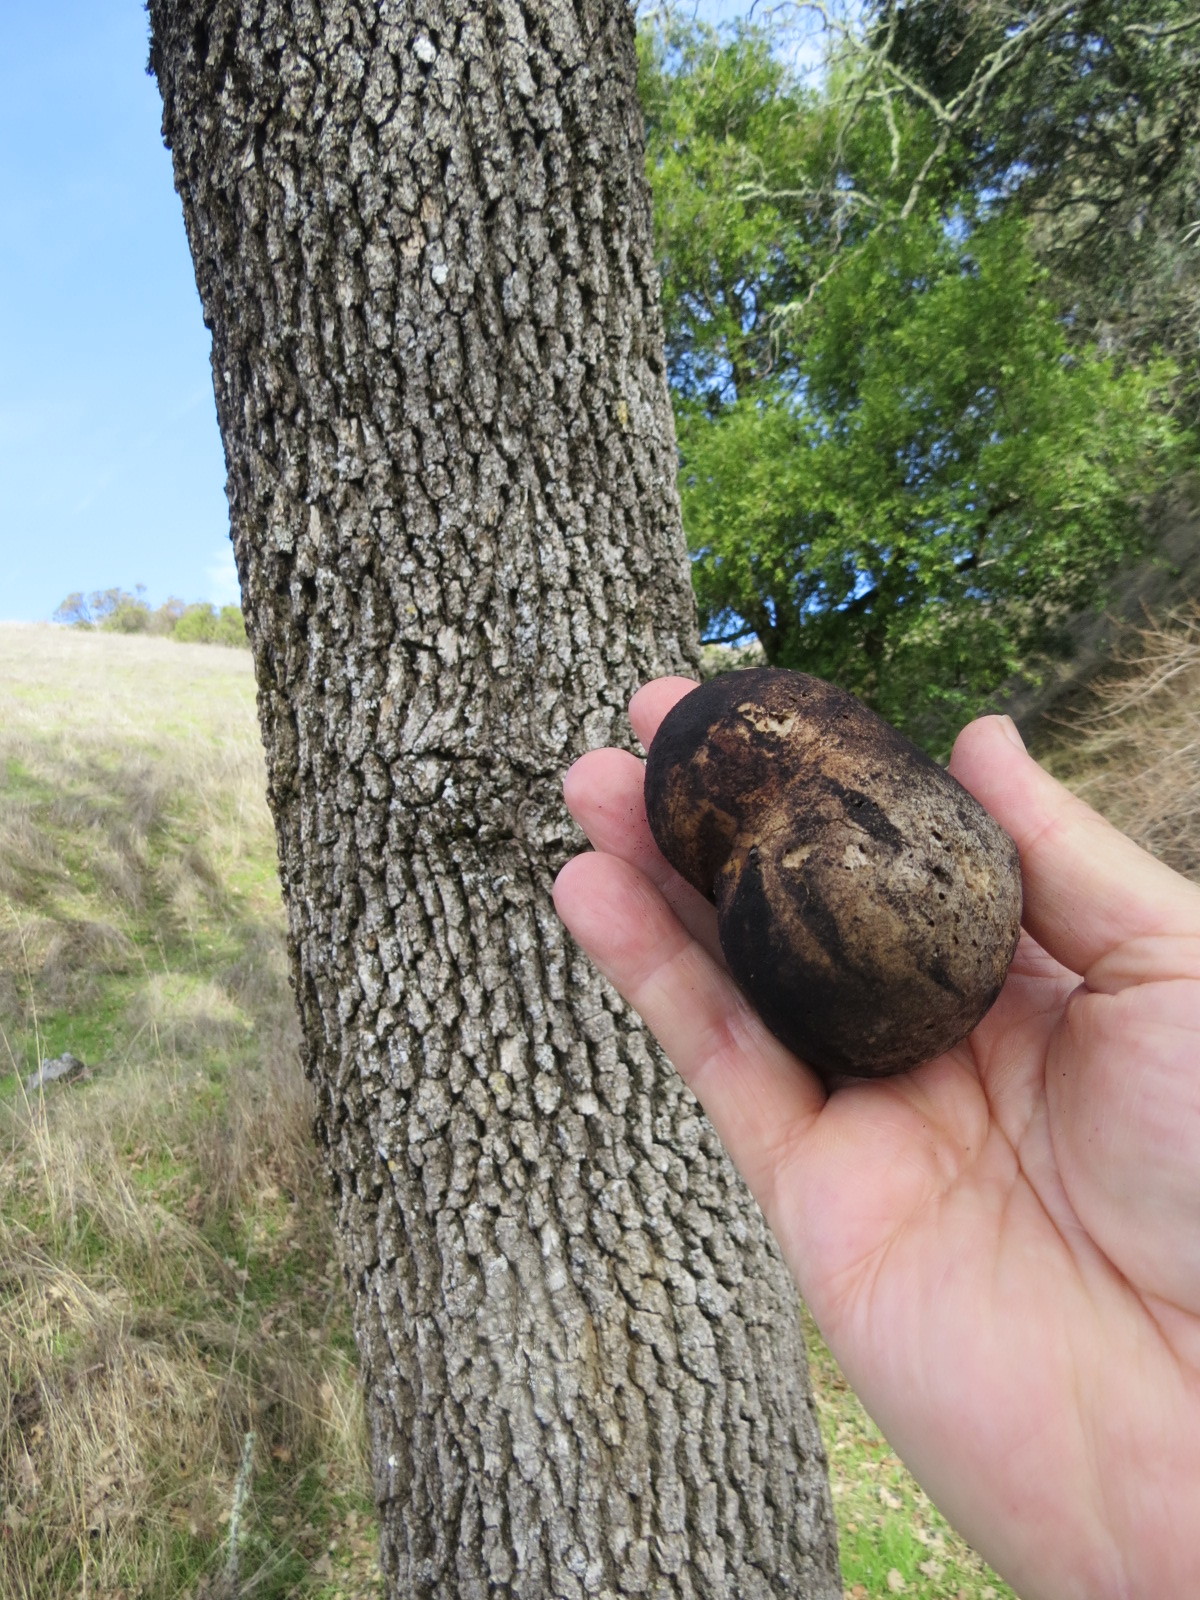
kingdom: Animalia
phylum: Arthropoda
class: Insecta
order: Hymenoptera
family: Cynipidae
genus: Andricus
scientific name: Andricus quercuscalifornicus
